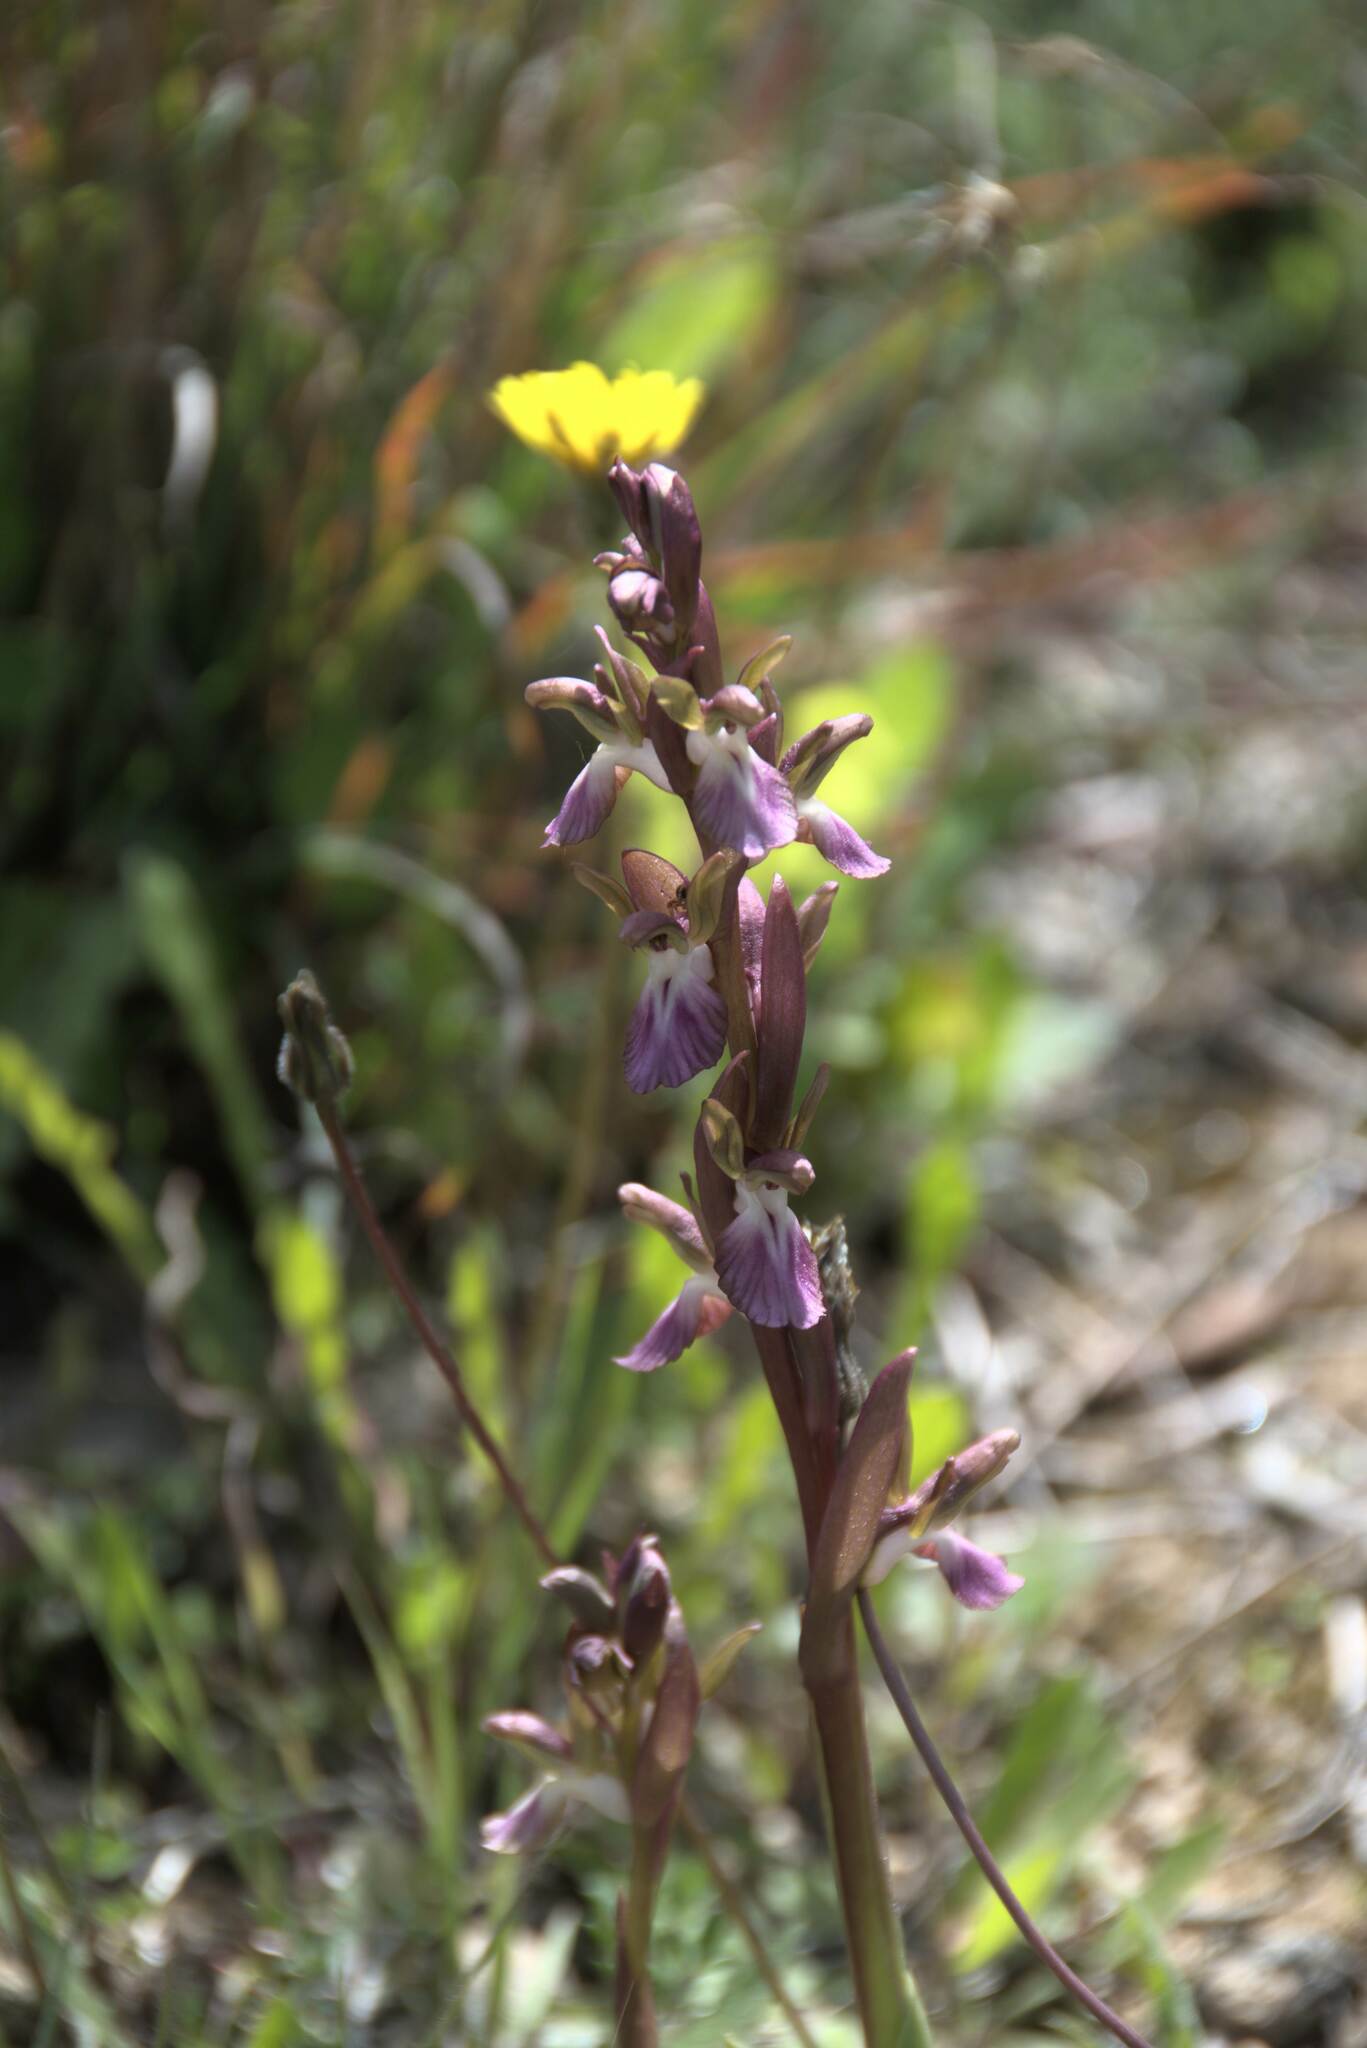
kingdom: Plantae
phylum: Tracheophyta
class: Liliopsida
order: Asparagales
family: Orchidaceae
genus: Anacamptis
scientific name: Anacamptis collina
